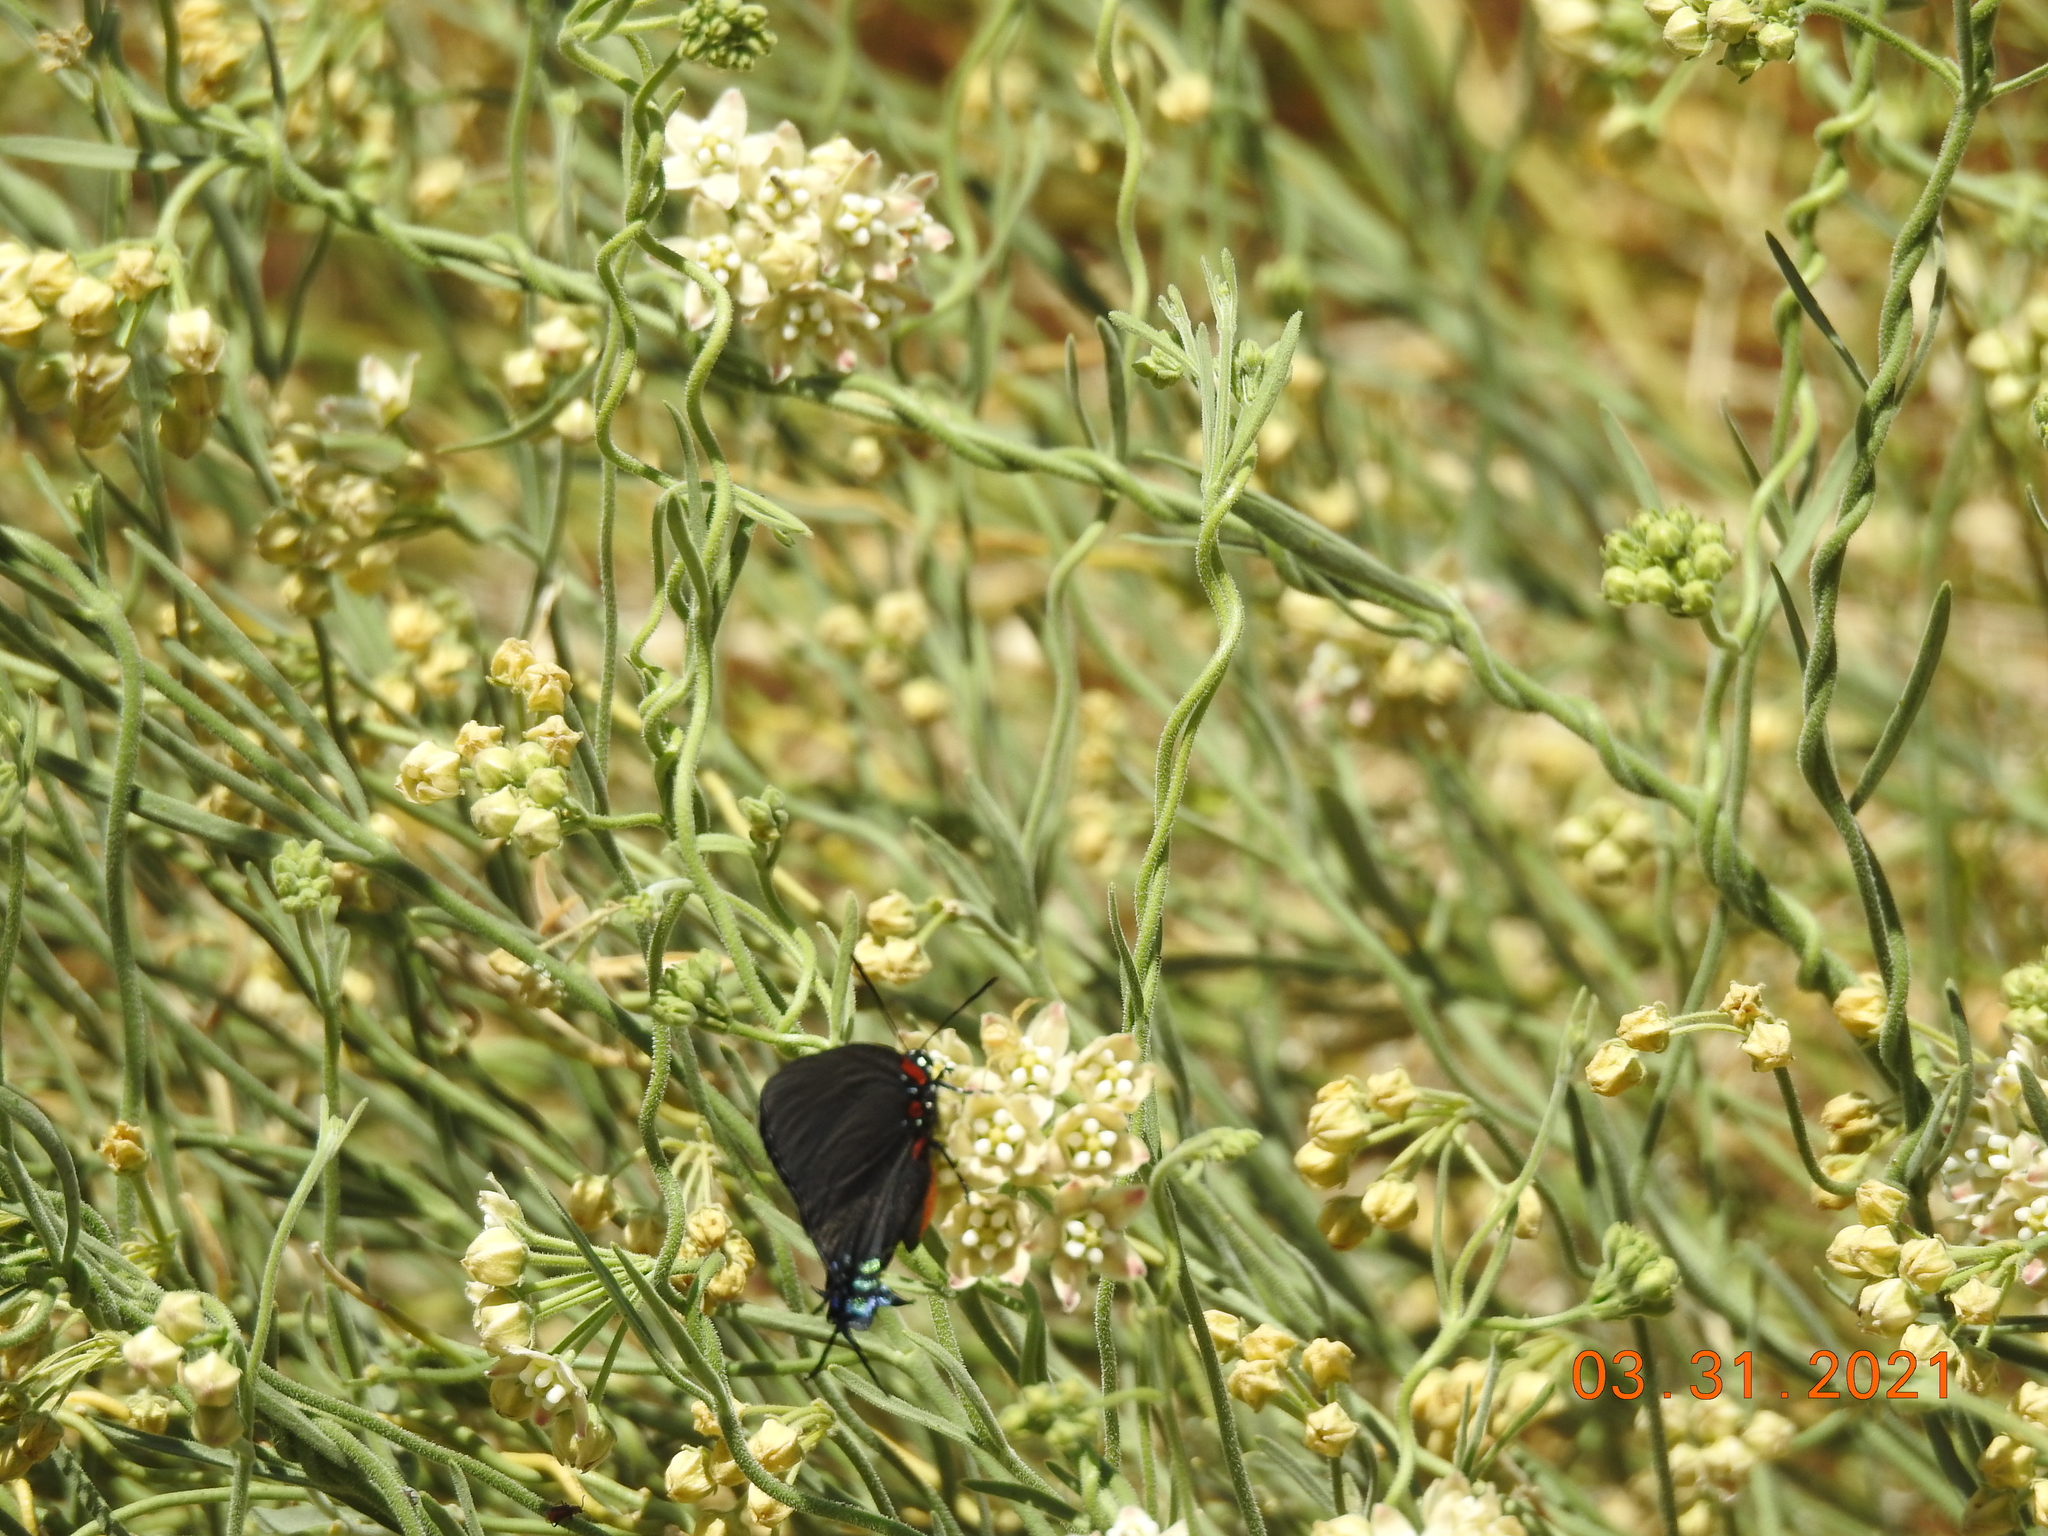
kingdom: Animalia
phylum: Arthropoda
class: Insecta
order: Lepidoptera
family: Lycaenidae
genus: Atlides
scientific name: Atlides halesus
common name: Great purple hairstreak
